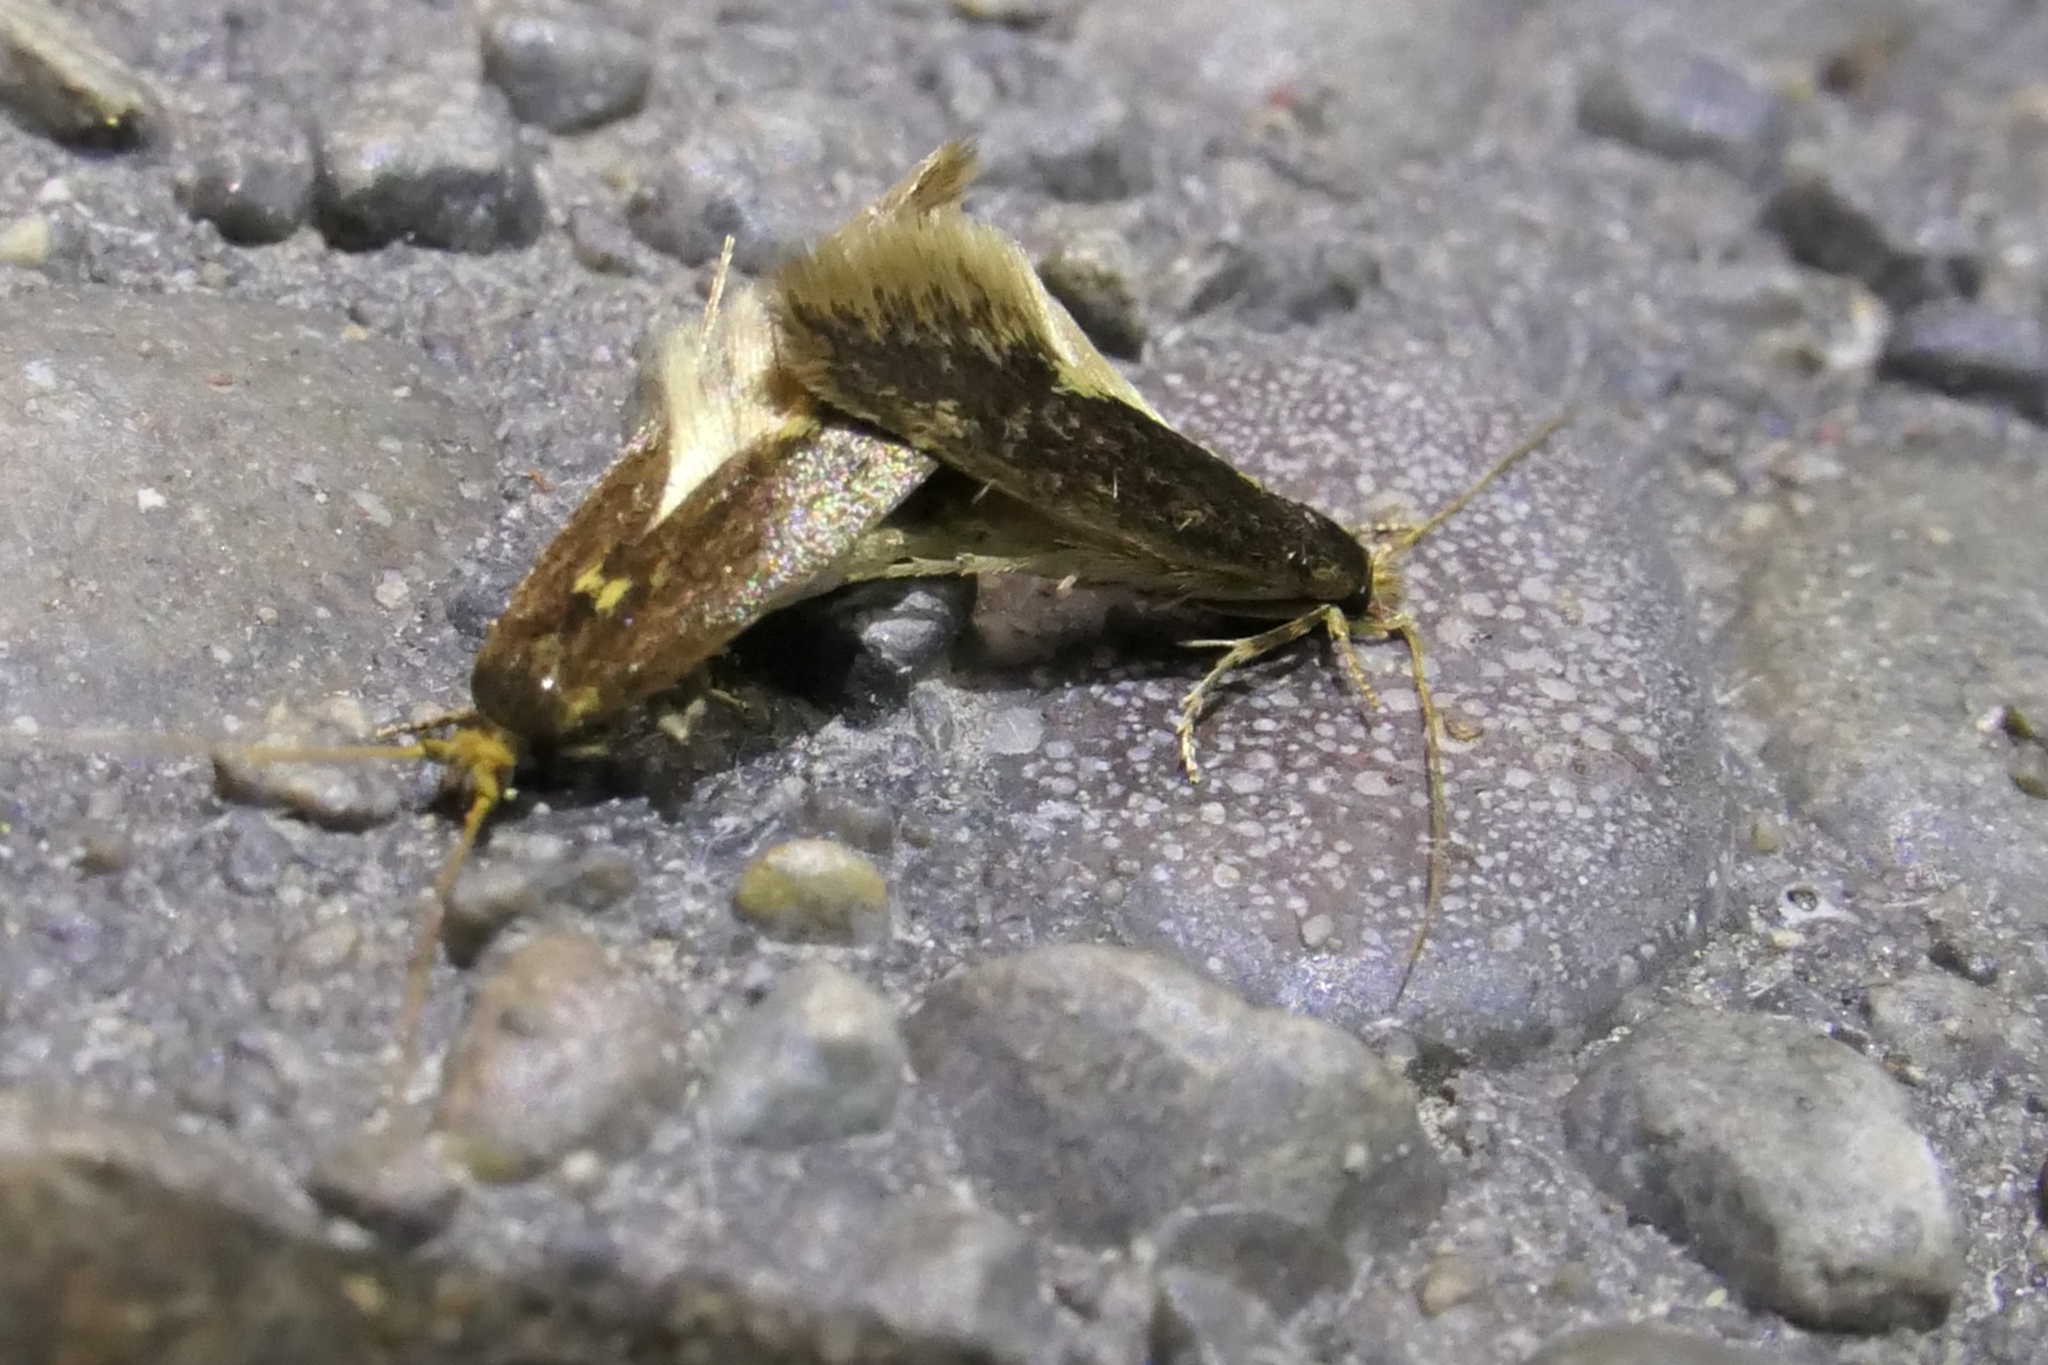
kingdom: Animalia
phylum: Arthropoda
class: Insecta
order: Lepidoptera
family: Tineidae
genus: Opogona
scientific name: Opogona omoscopa
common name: Moth
